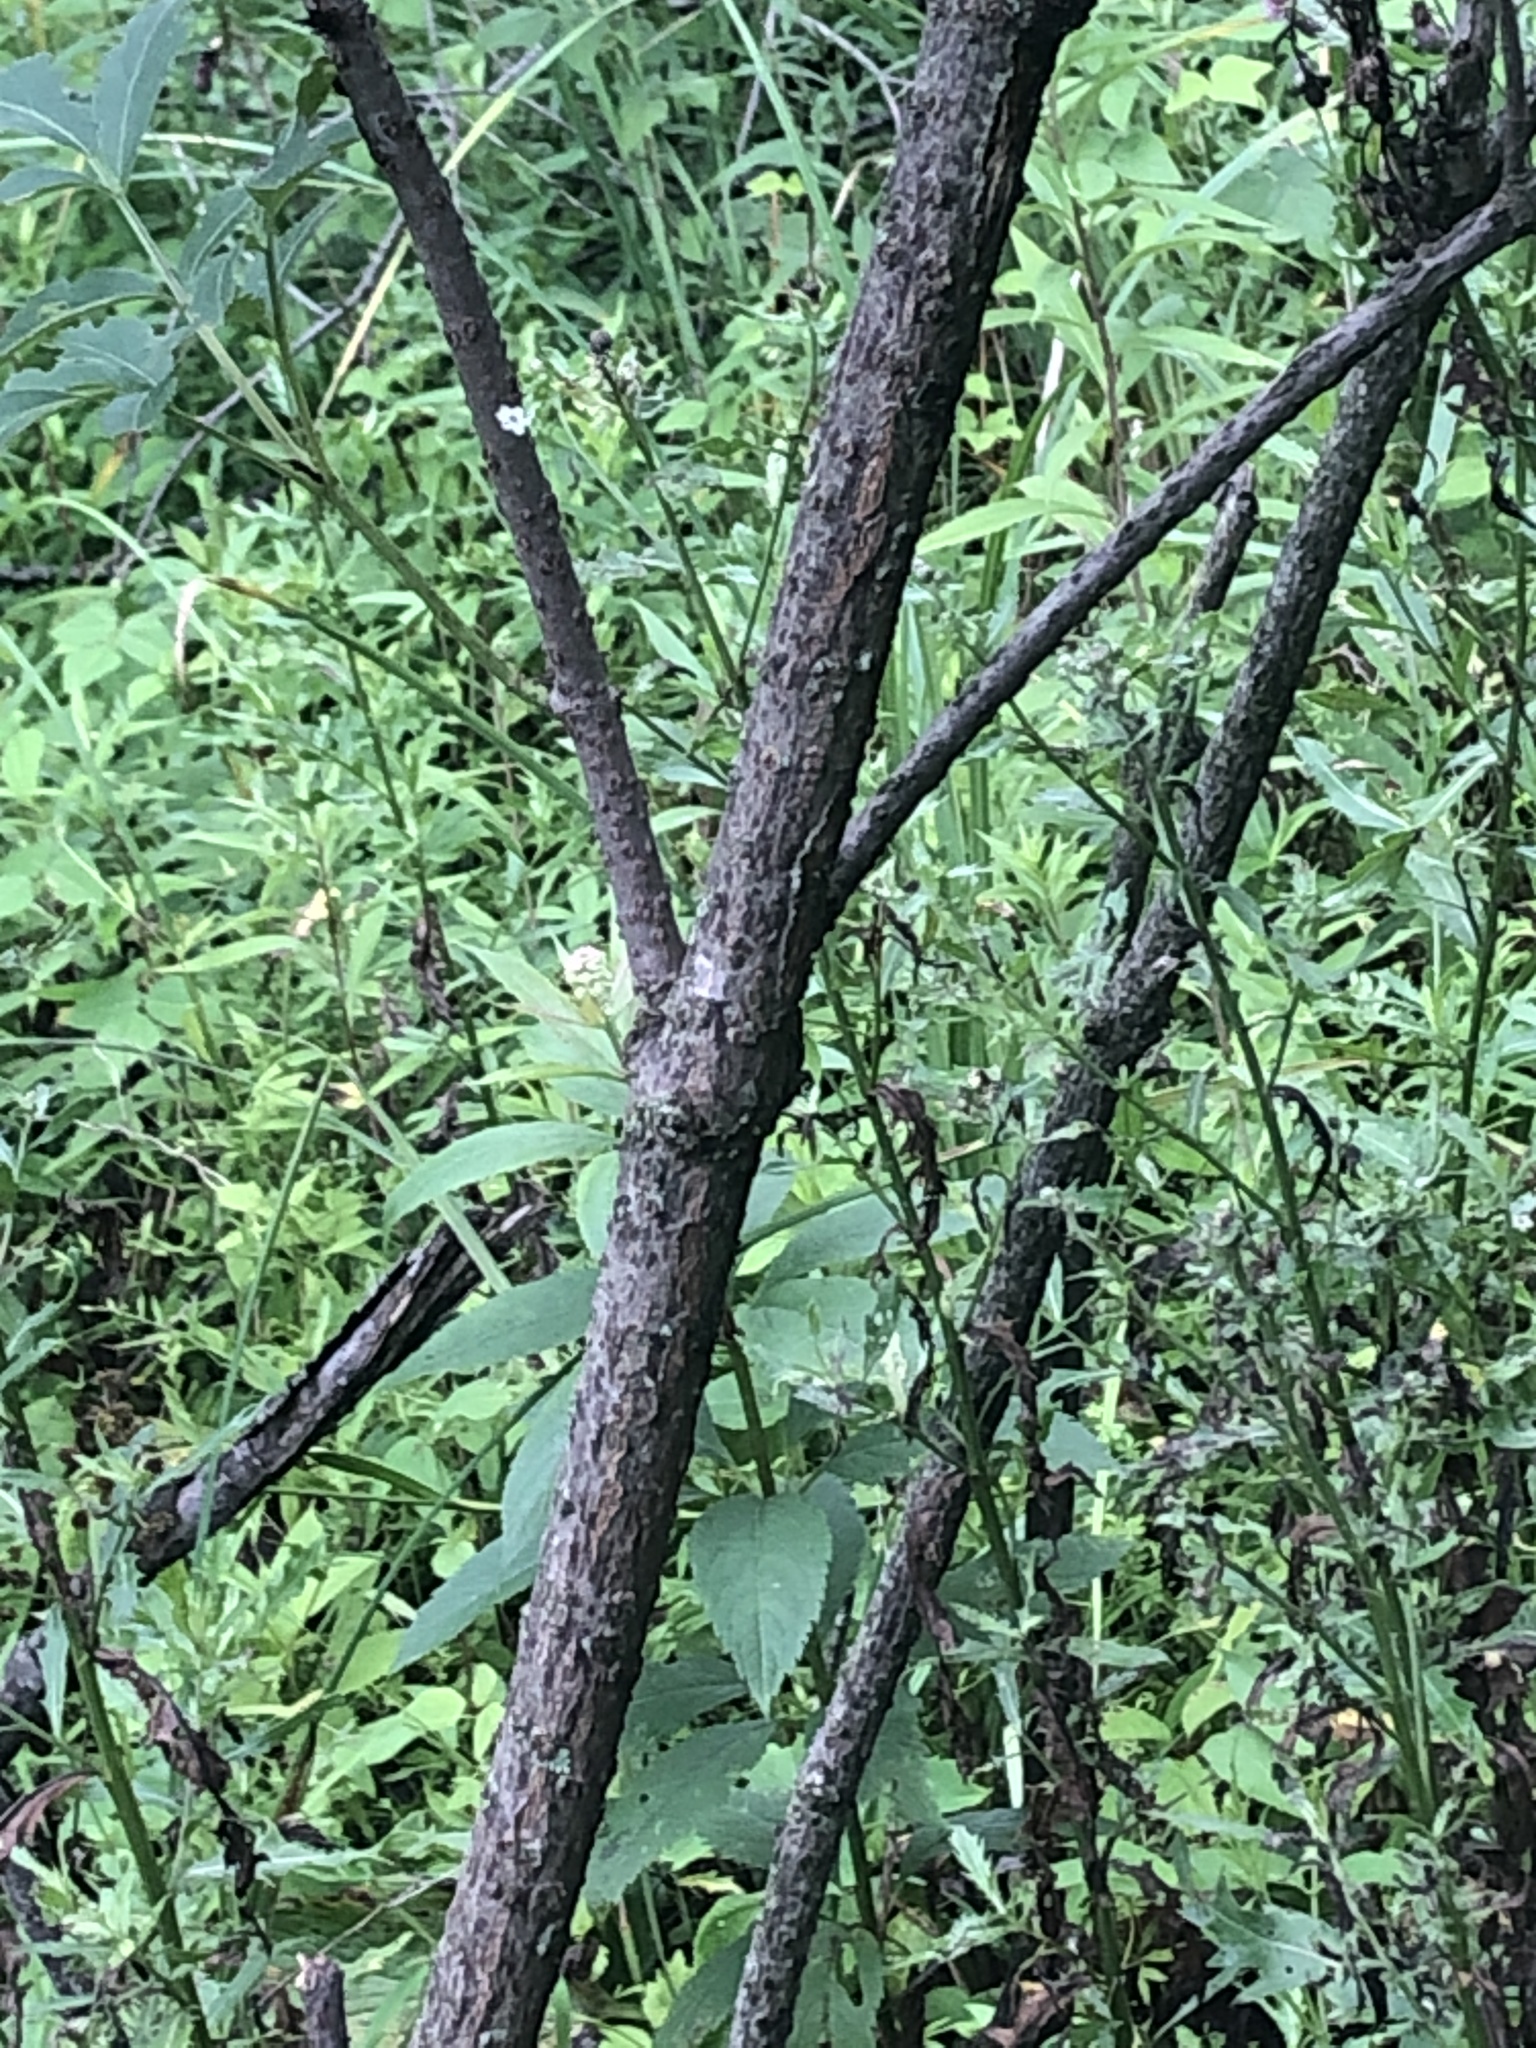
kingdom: Plantae
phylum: Tracheophyta
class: Magnoliopsida
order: Dipsacales
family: Viburnaceae
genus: Sambucus
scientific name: Sambucus canadensis
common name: American elder
